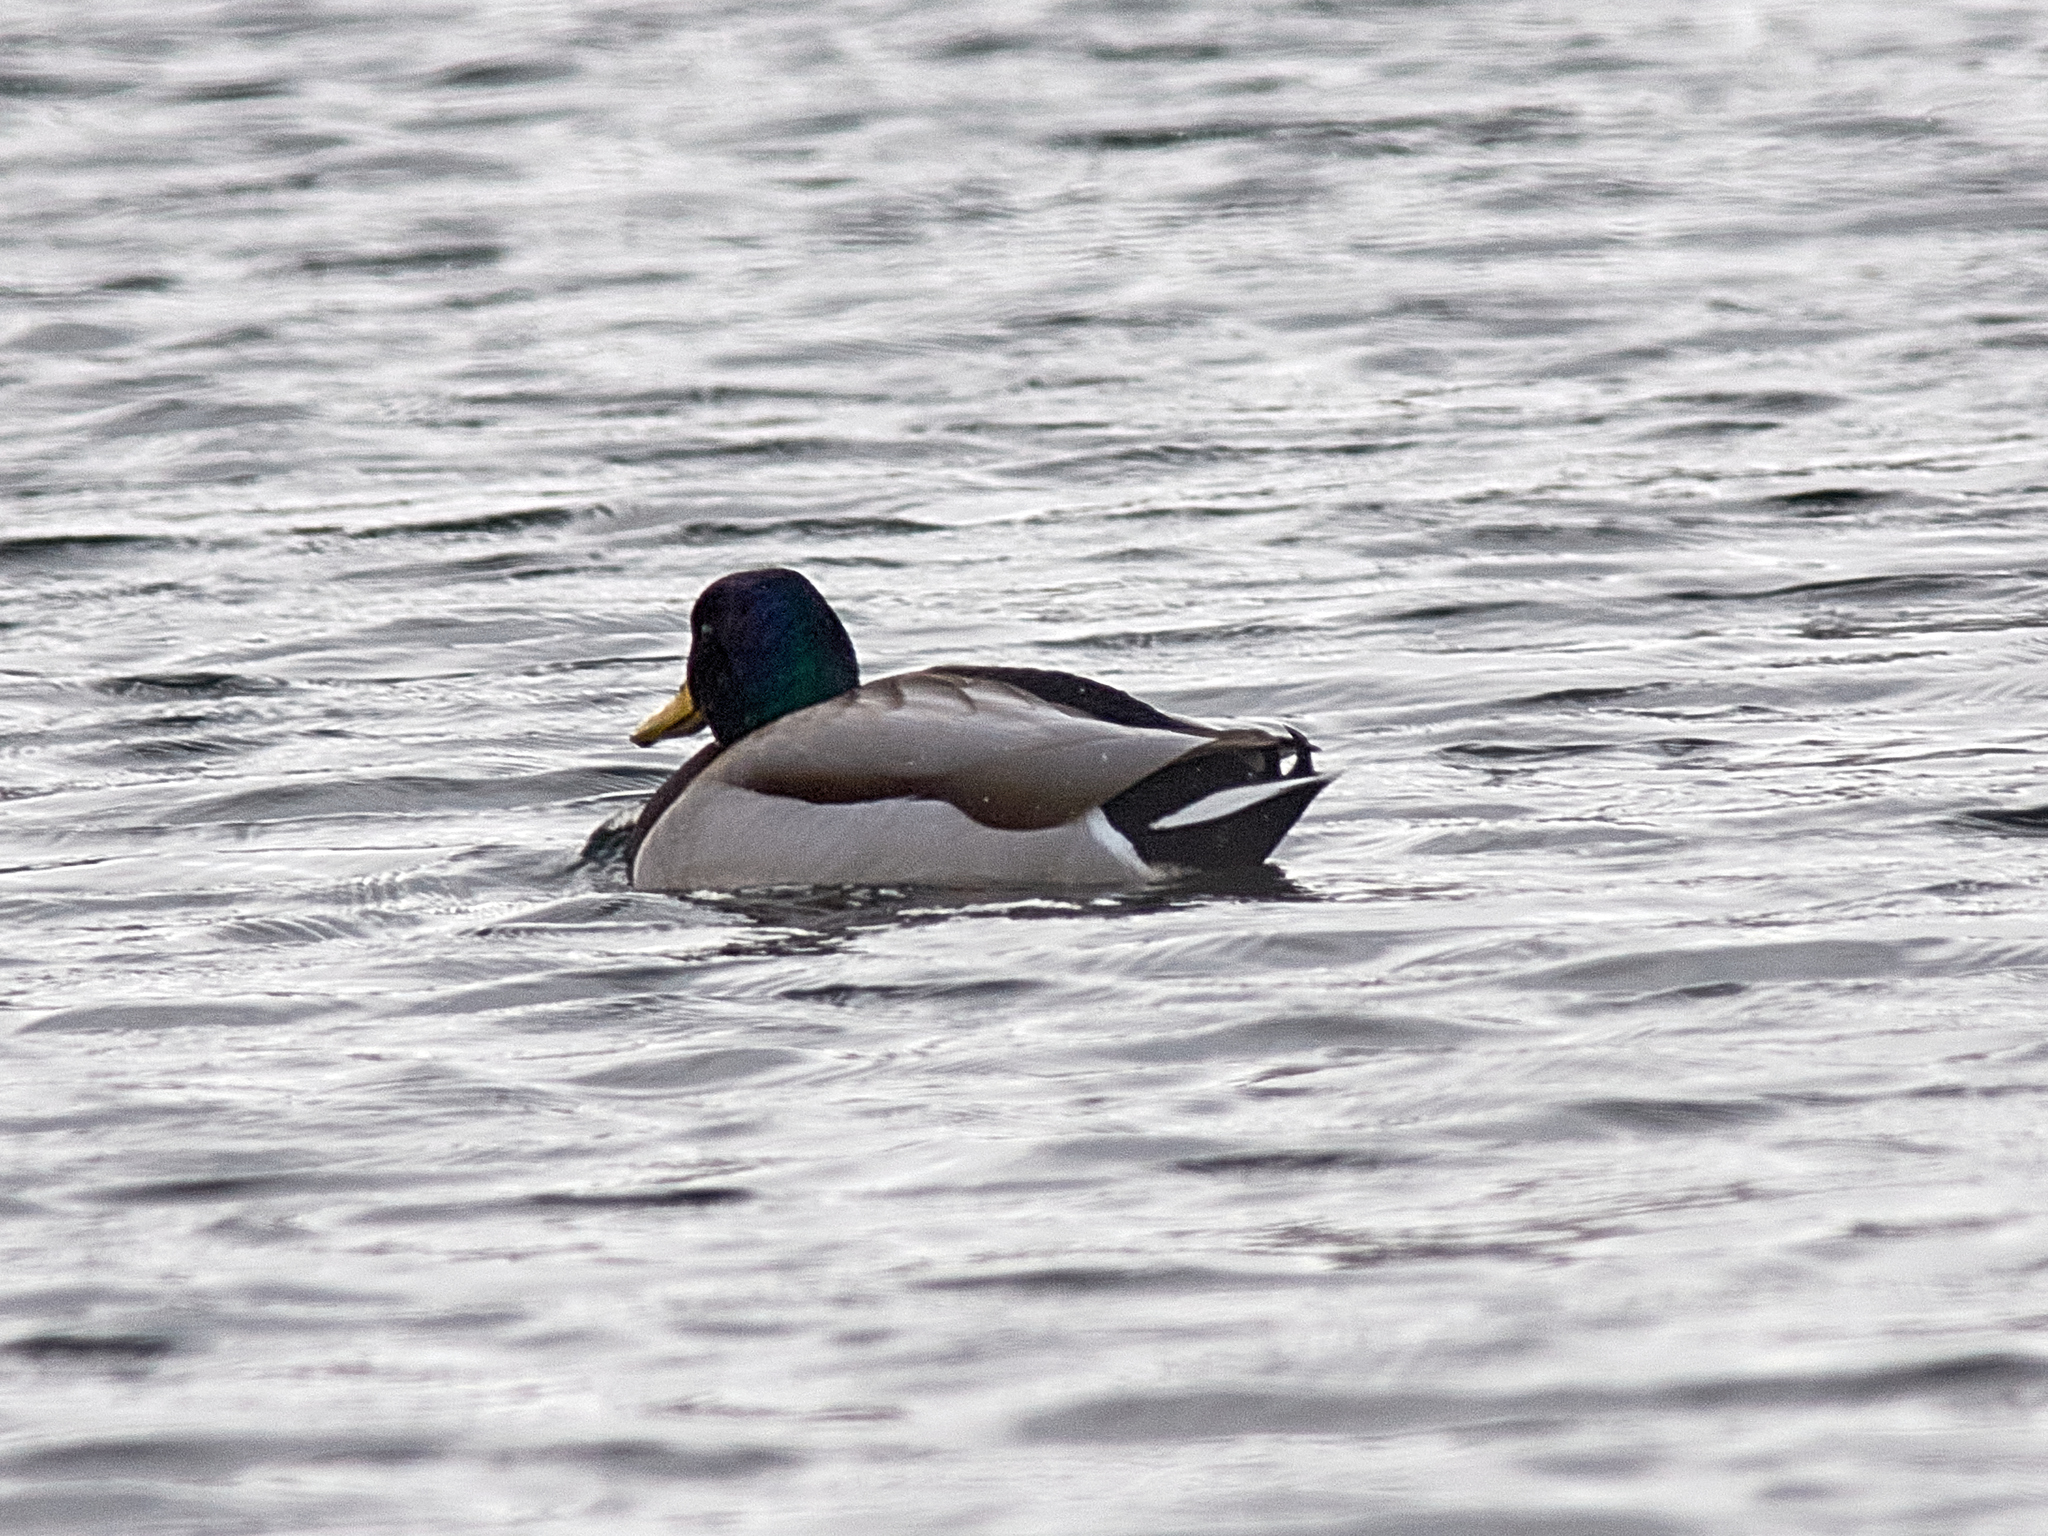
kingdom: Animalia
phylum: Chordata
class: Aves
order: Anseriformes
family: Anatidae
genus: Anas
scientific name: Anas platyrhynchos
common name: Mallard
